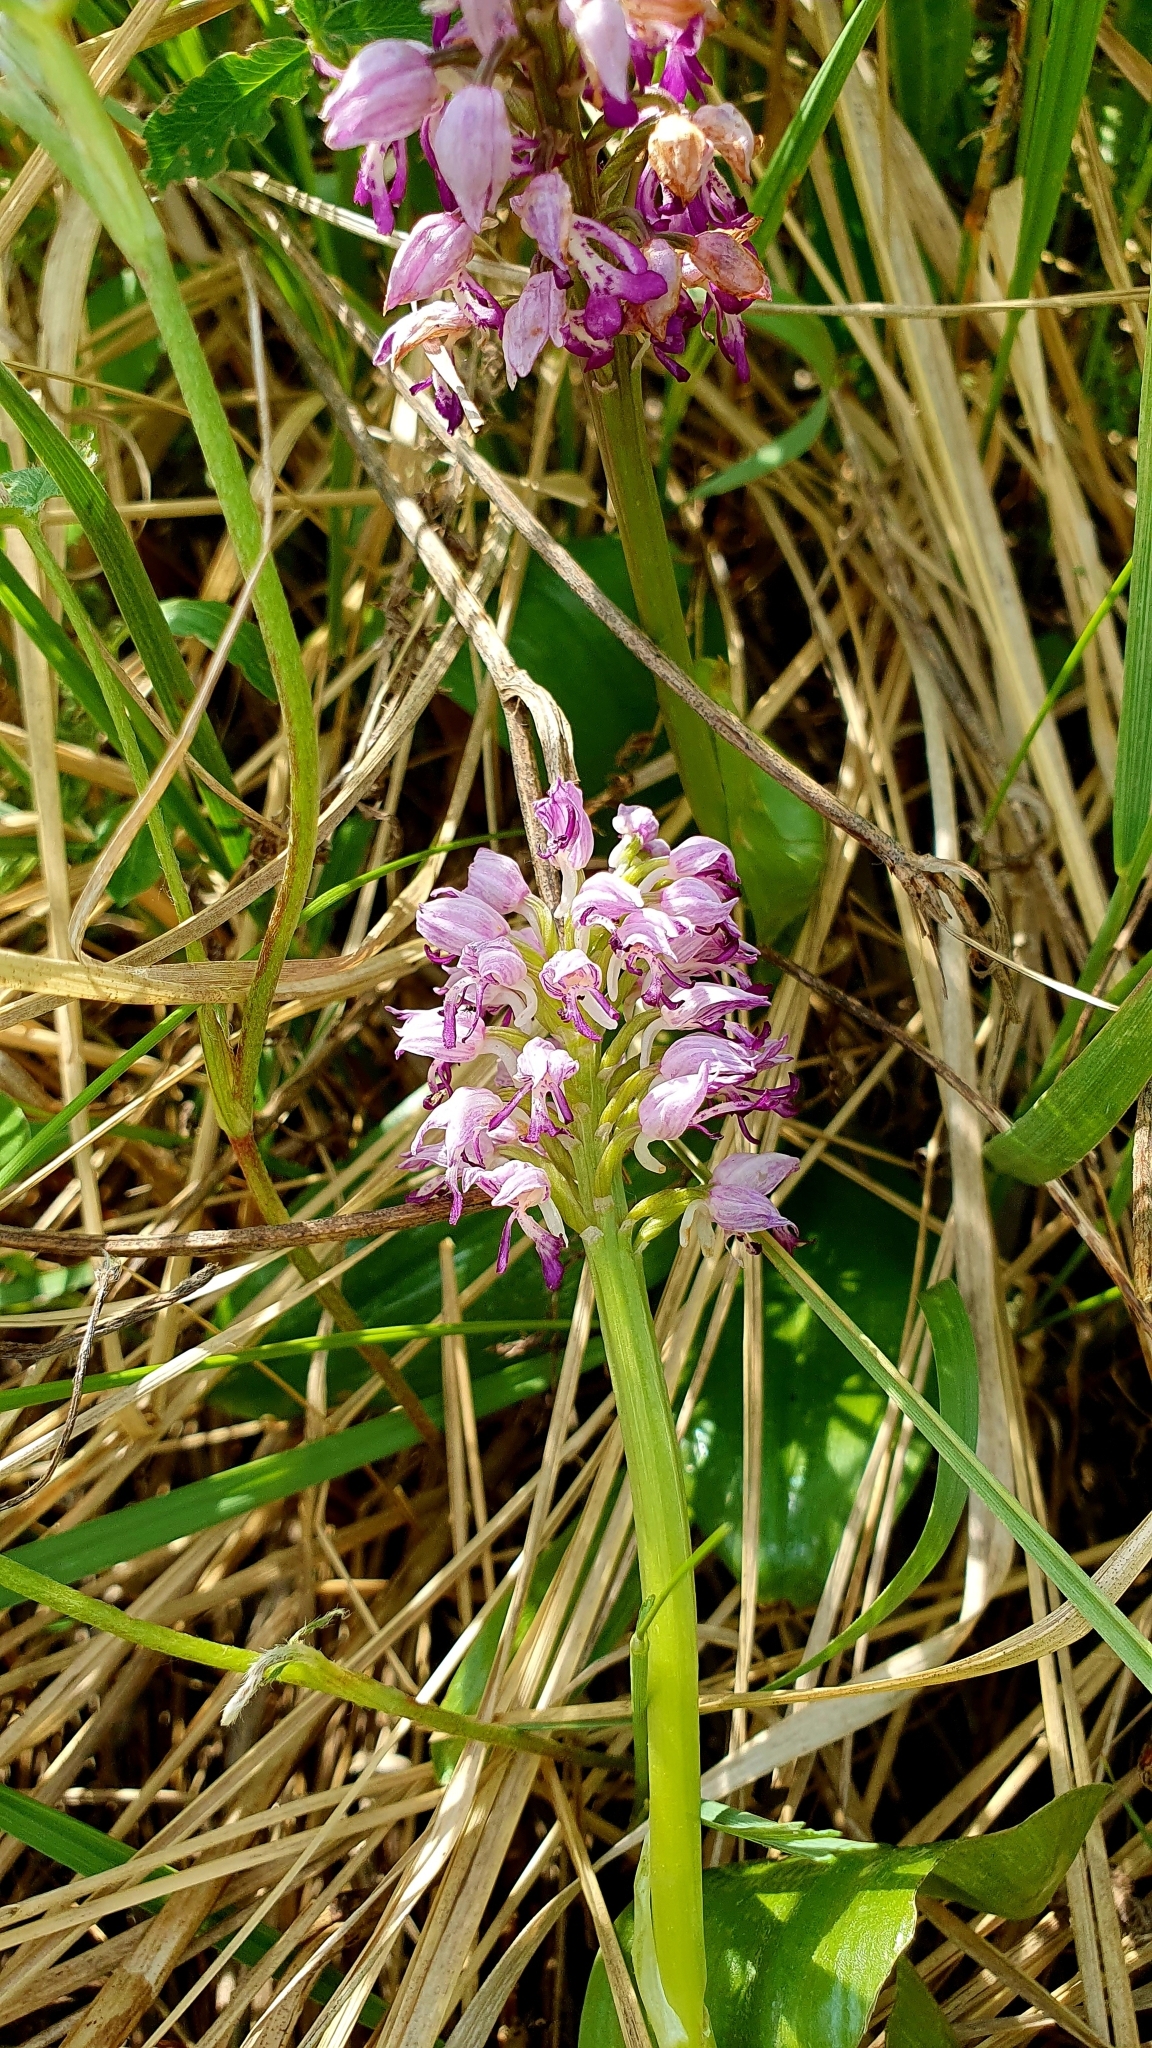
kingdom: Plantae
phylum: Tracheophyta
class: Liliopsida
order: Asparagales
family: Orchidaceae
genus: Orchis
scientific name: Orchis militaris
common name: Military orchid
